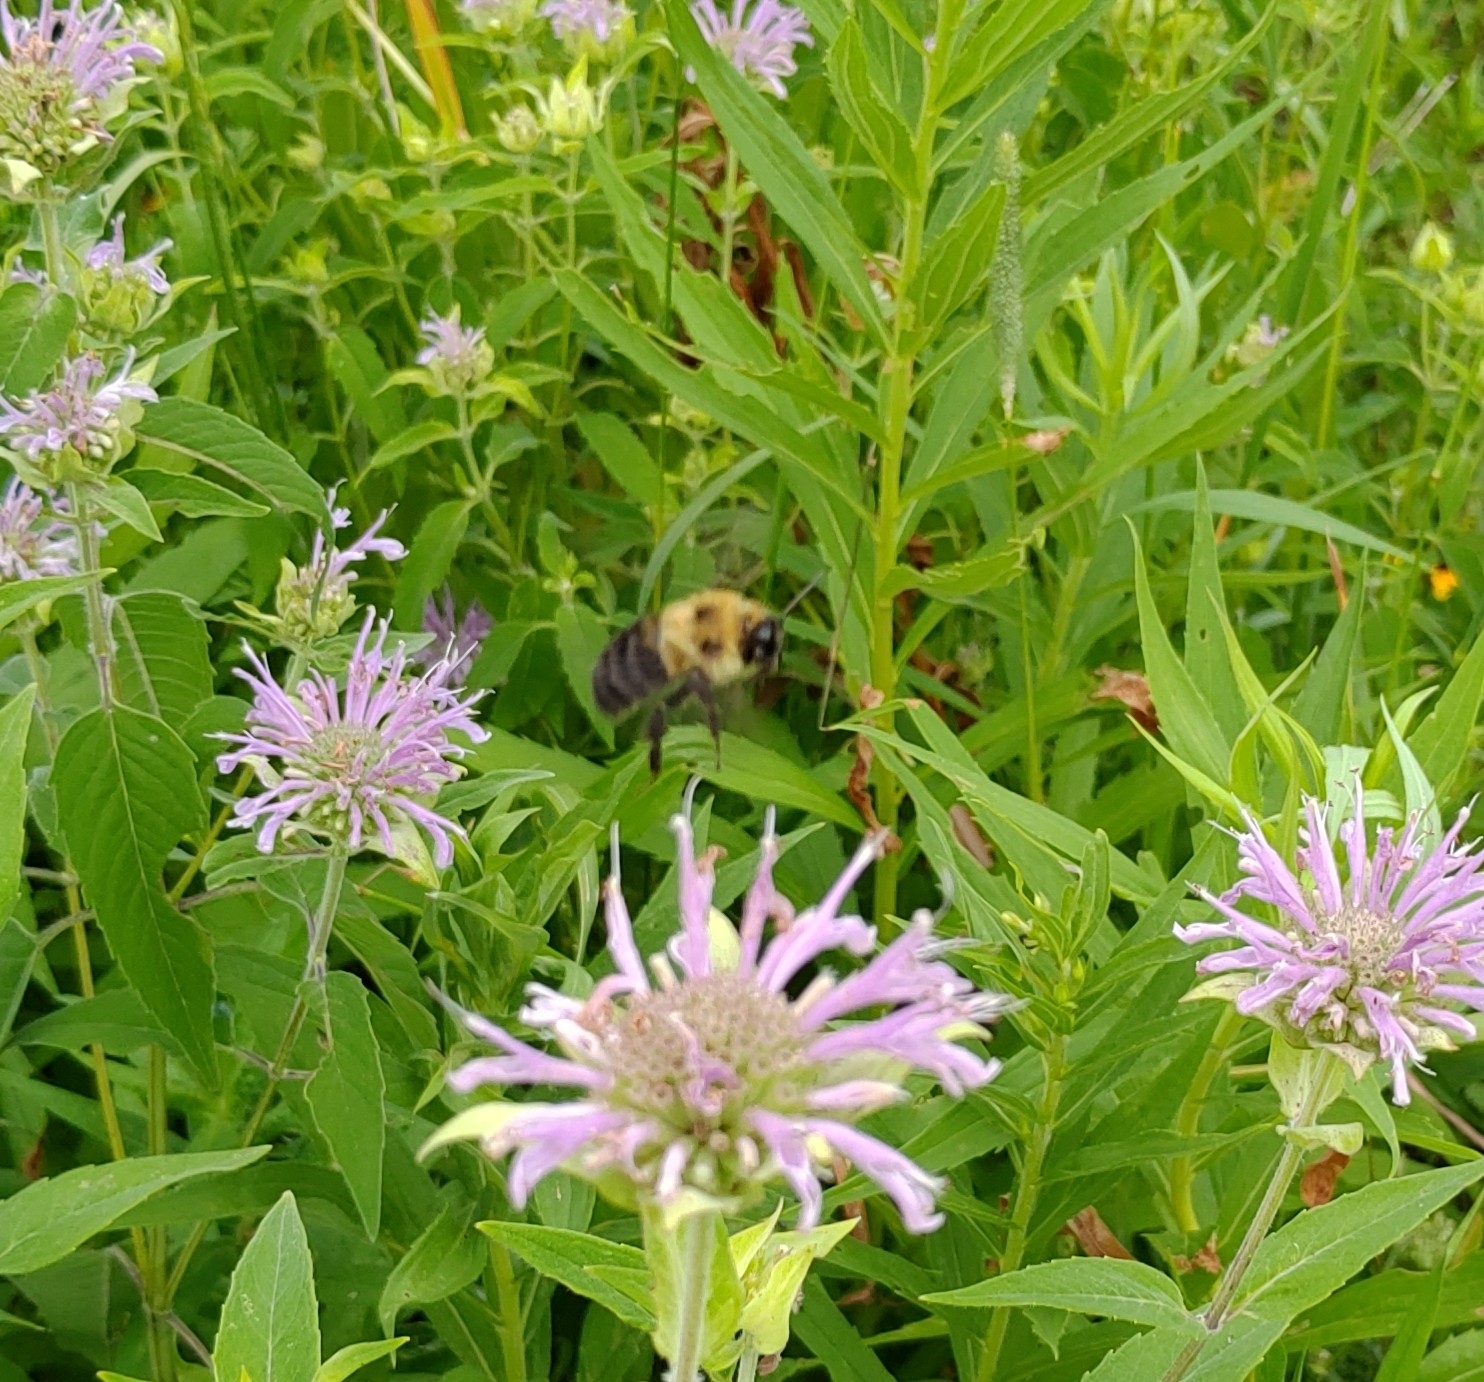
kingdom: Animalia
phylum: Arthropoda
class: Insecta
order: Hymenoptera
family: Apidae
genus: Bombus
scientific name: Bombus bimaculatus
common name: Two-spotted bumble bee
